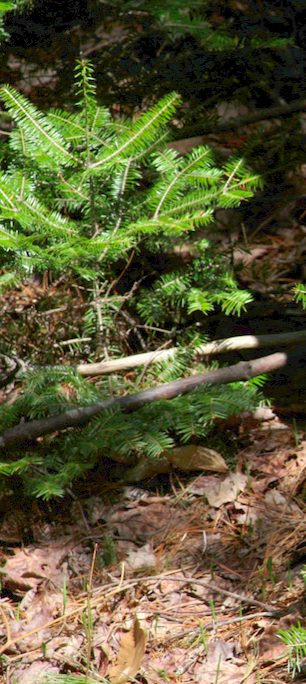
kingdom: Plantae
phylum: Tracheophyta
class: Pinopsida
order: Pinales
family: Pinaceae
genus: Abies
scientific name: Abies balsamea
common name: Balsam fir
